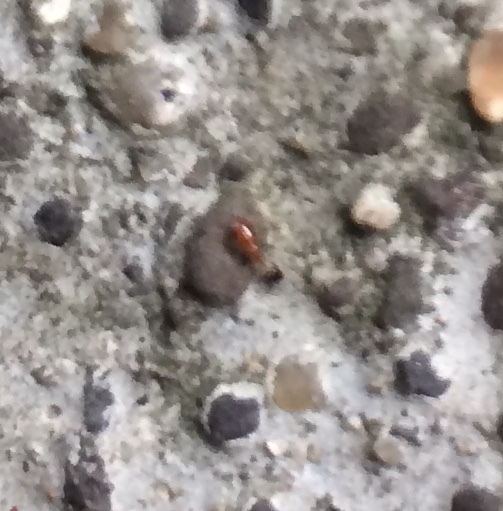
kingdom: Animalia
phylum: Arthropoda
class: Insecta
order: Hymenoptera
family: Formicidae
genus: Solenopsis
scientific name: Solenopsis geminata
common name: Tropical fire ant
